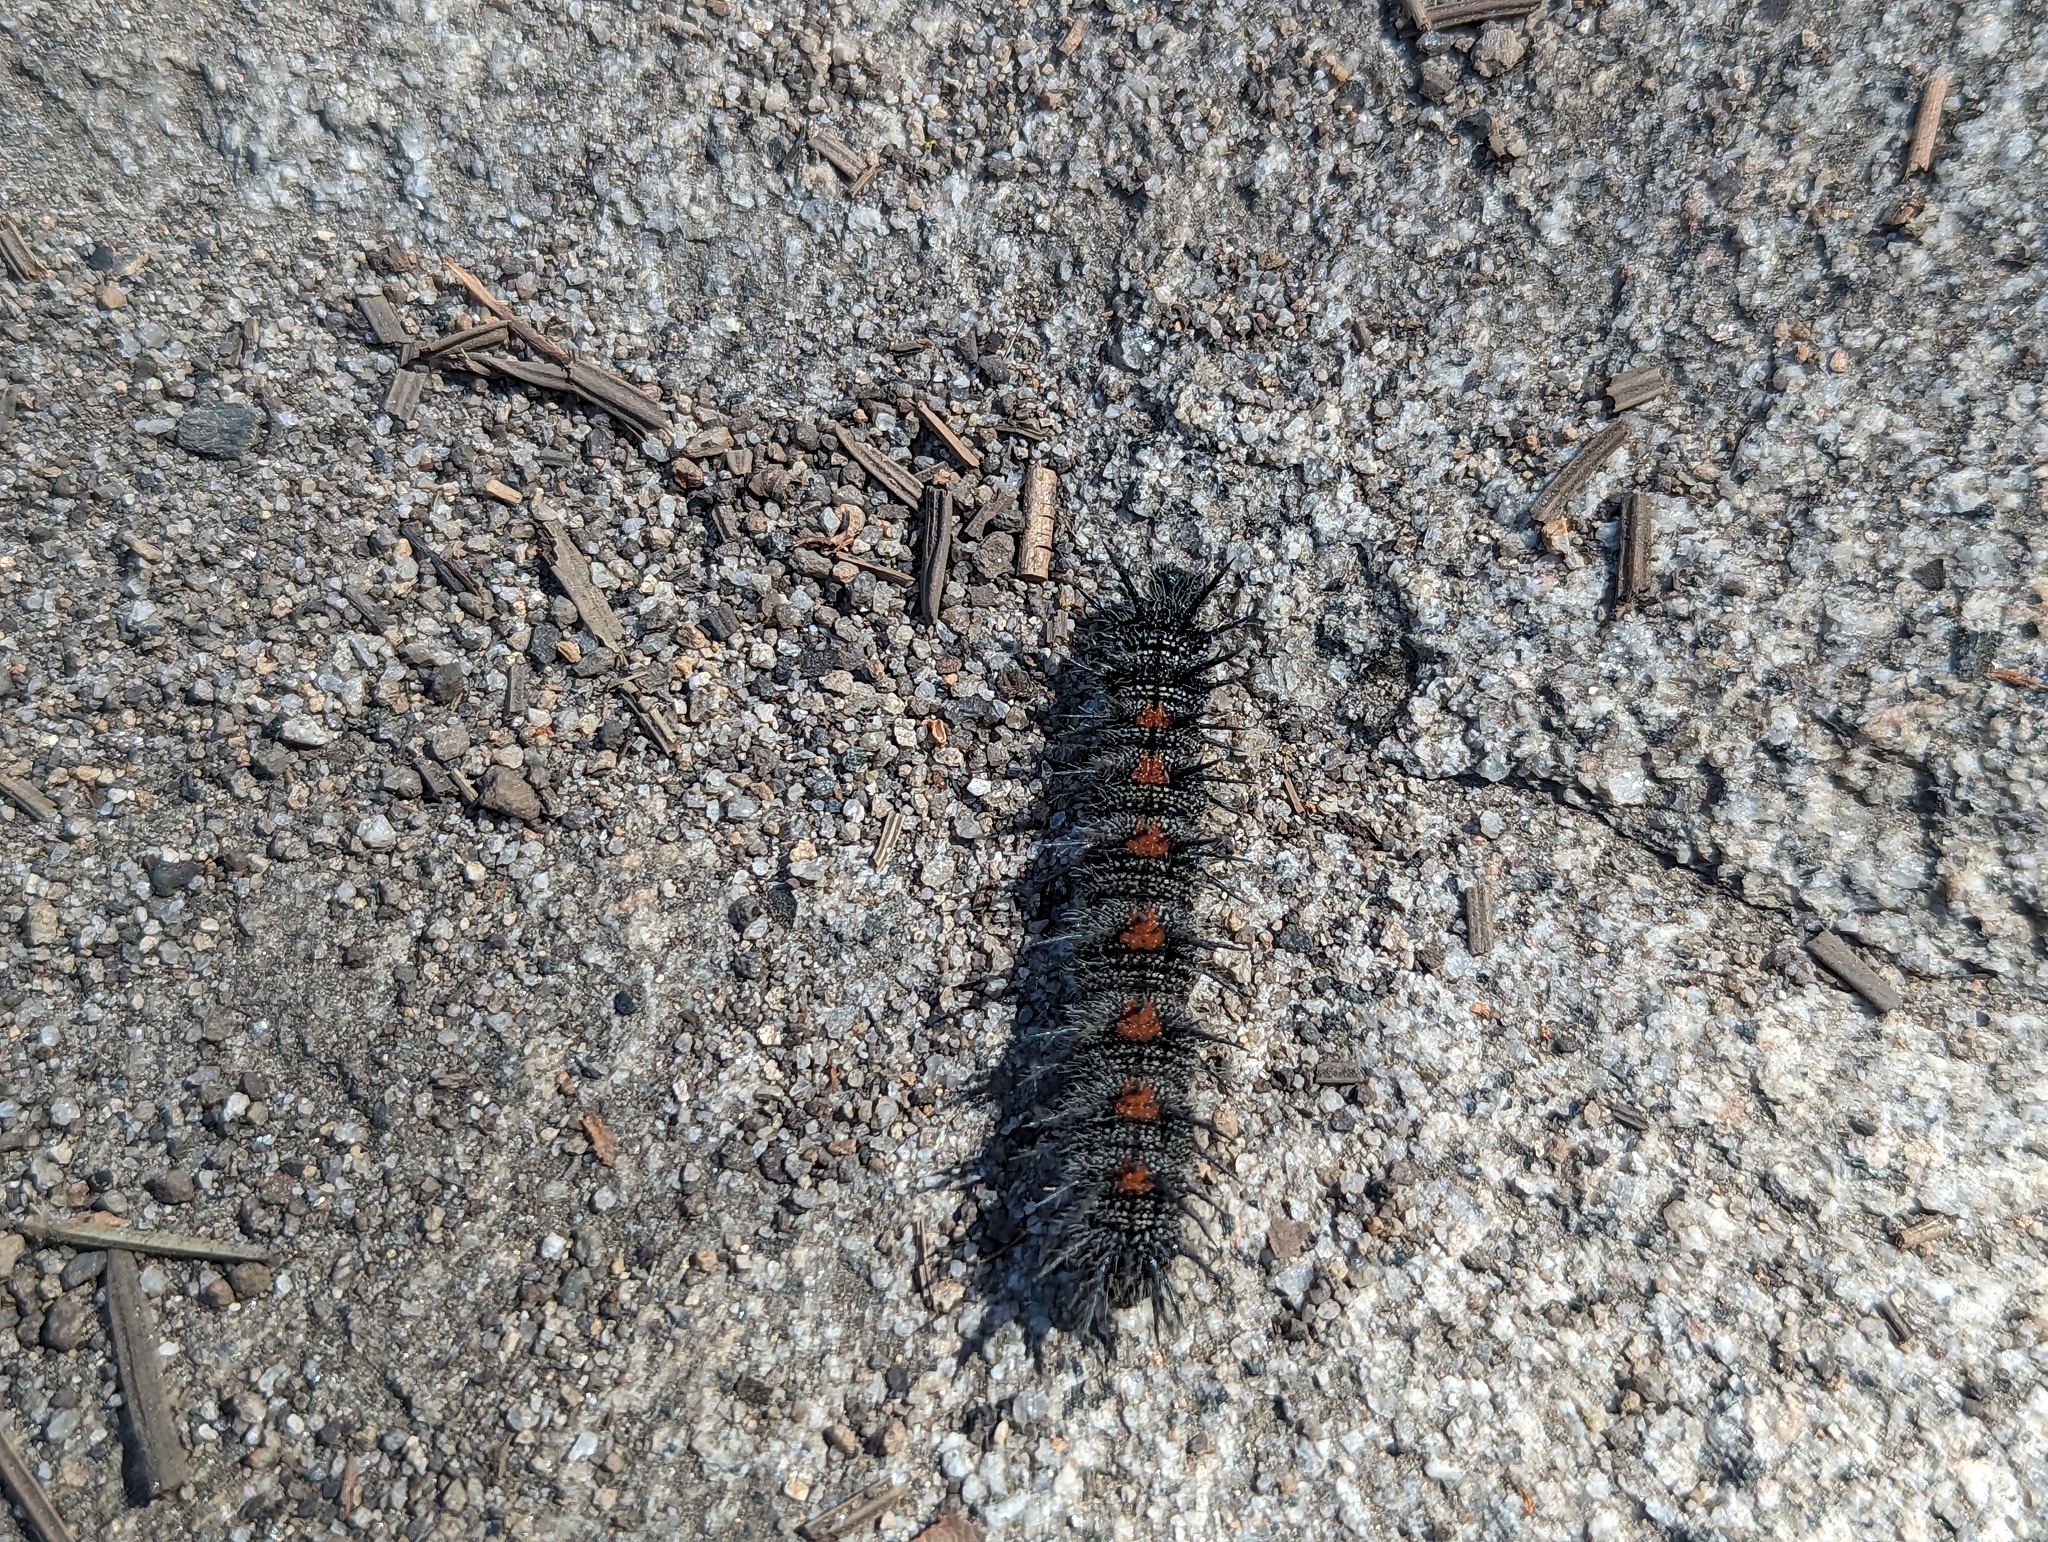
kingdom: Animalia
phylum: Arthropoda
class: Insecta
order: Lepidoptera
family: Nymphalidae
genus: Nymphalis
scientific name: Nymphalis antiopa
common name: Camberwell beauty
